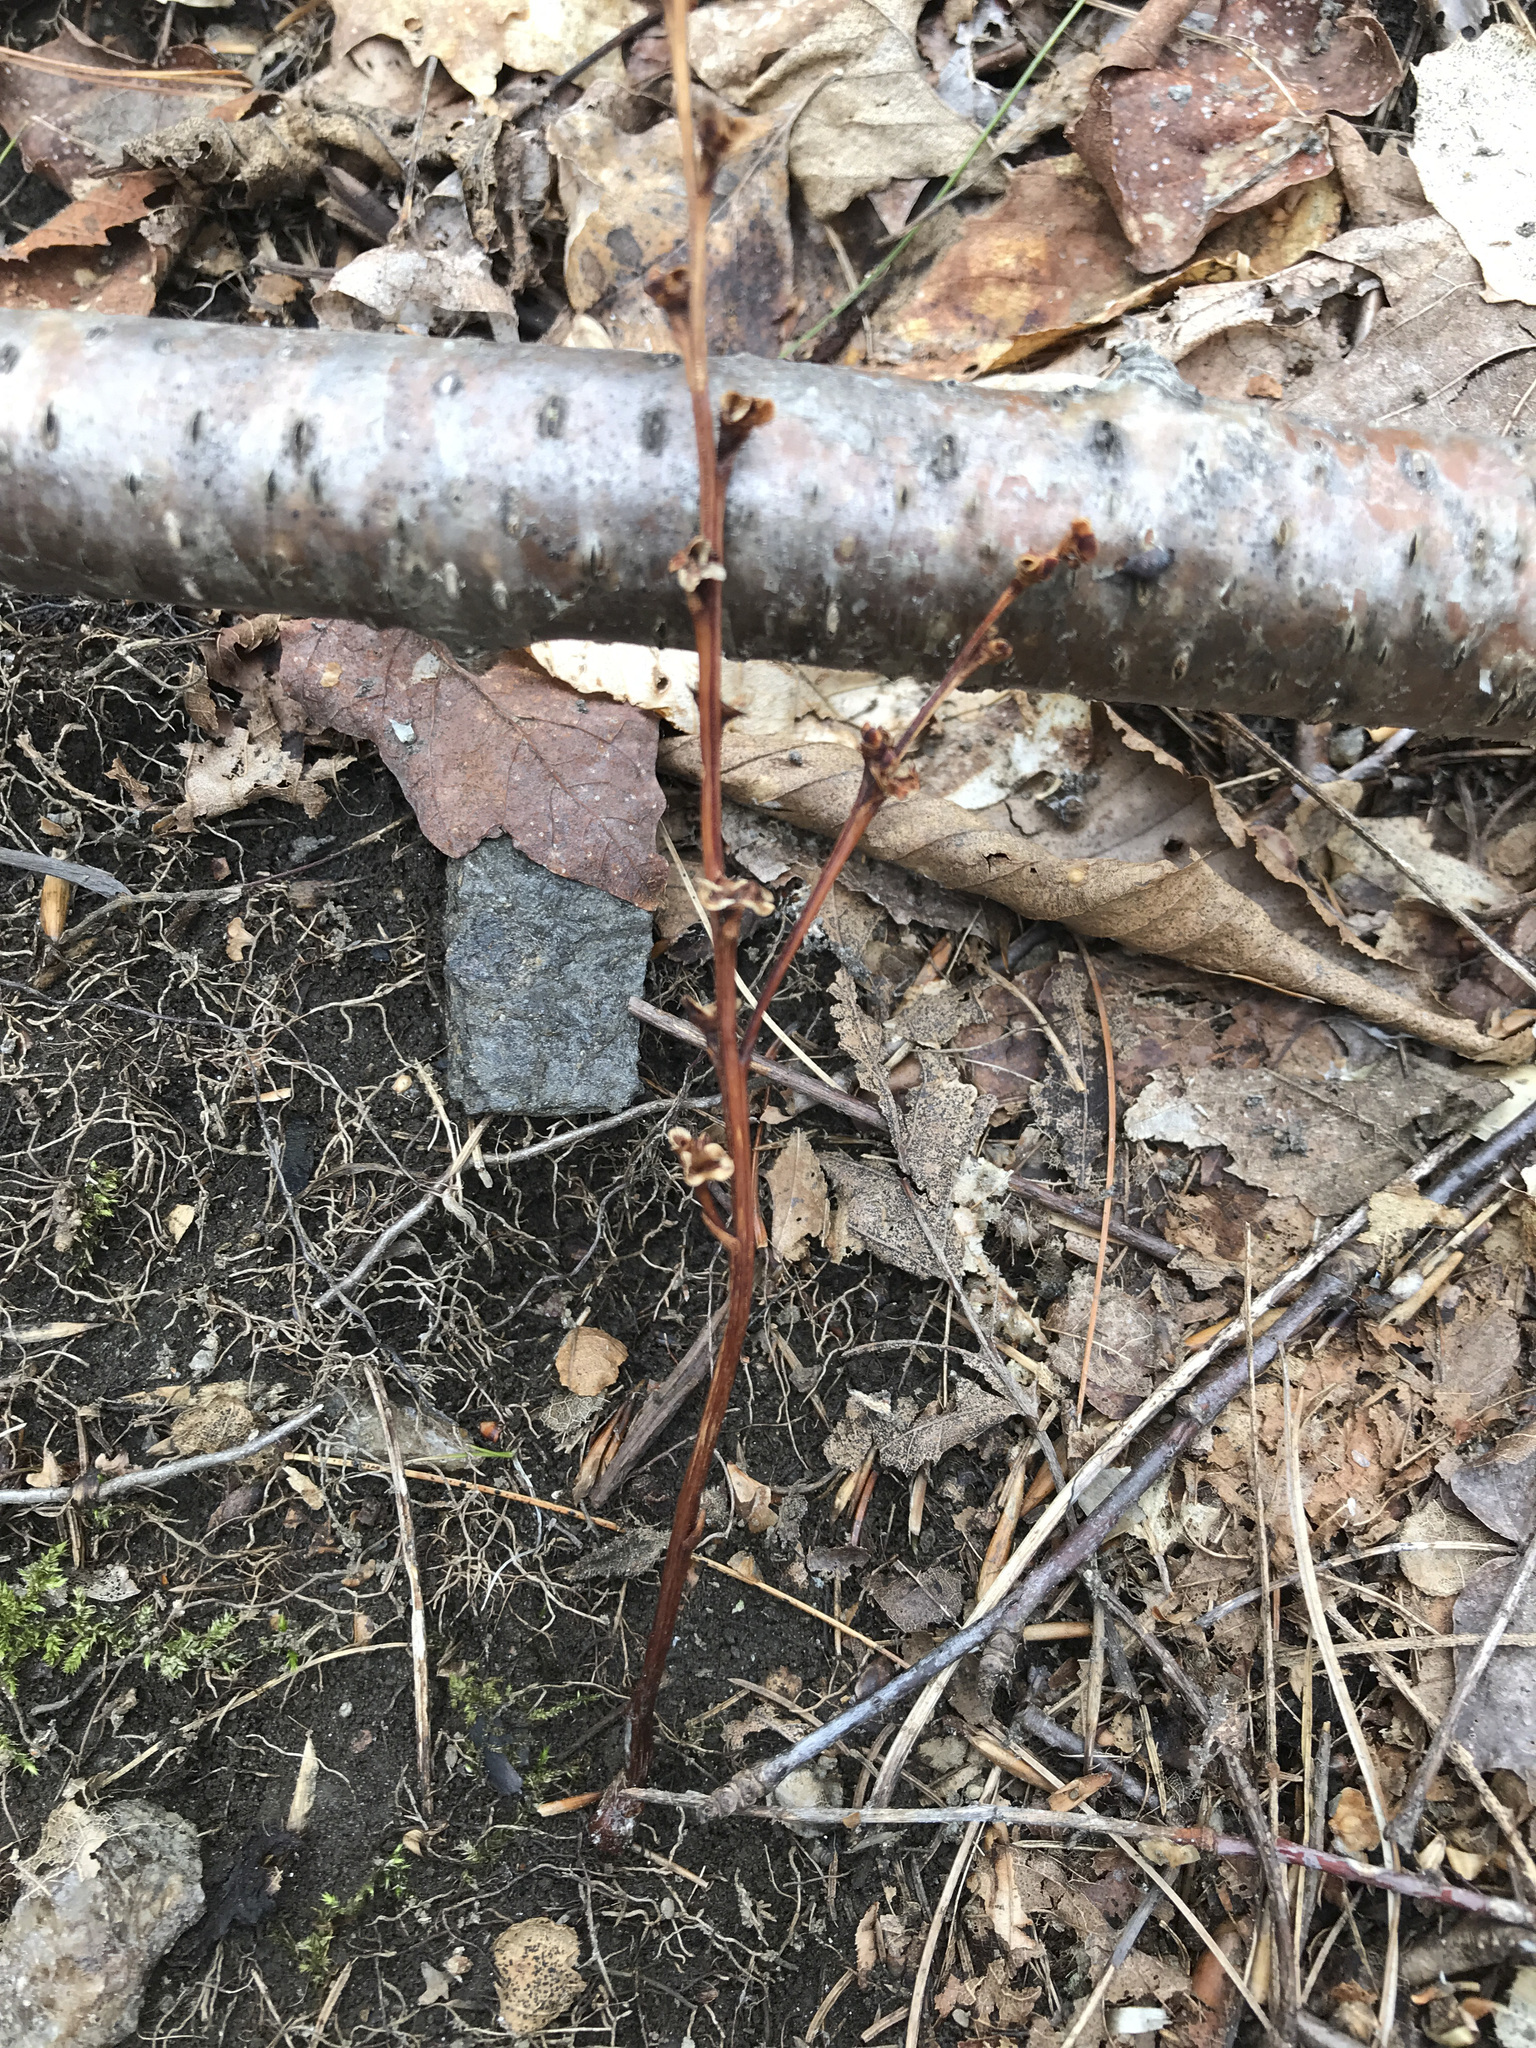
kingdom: Plantae
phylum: Tracheophyta
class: Magnoliopsida
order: Lamiales
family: Orobanchaceae
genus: Epifagus
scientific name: Epifagus virginiana
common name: Beechdrops
